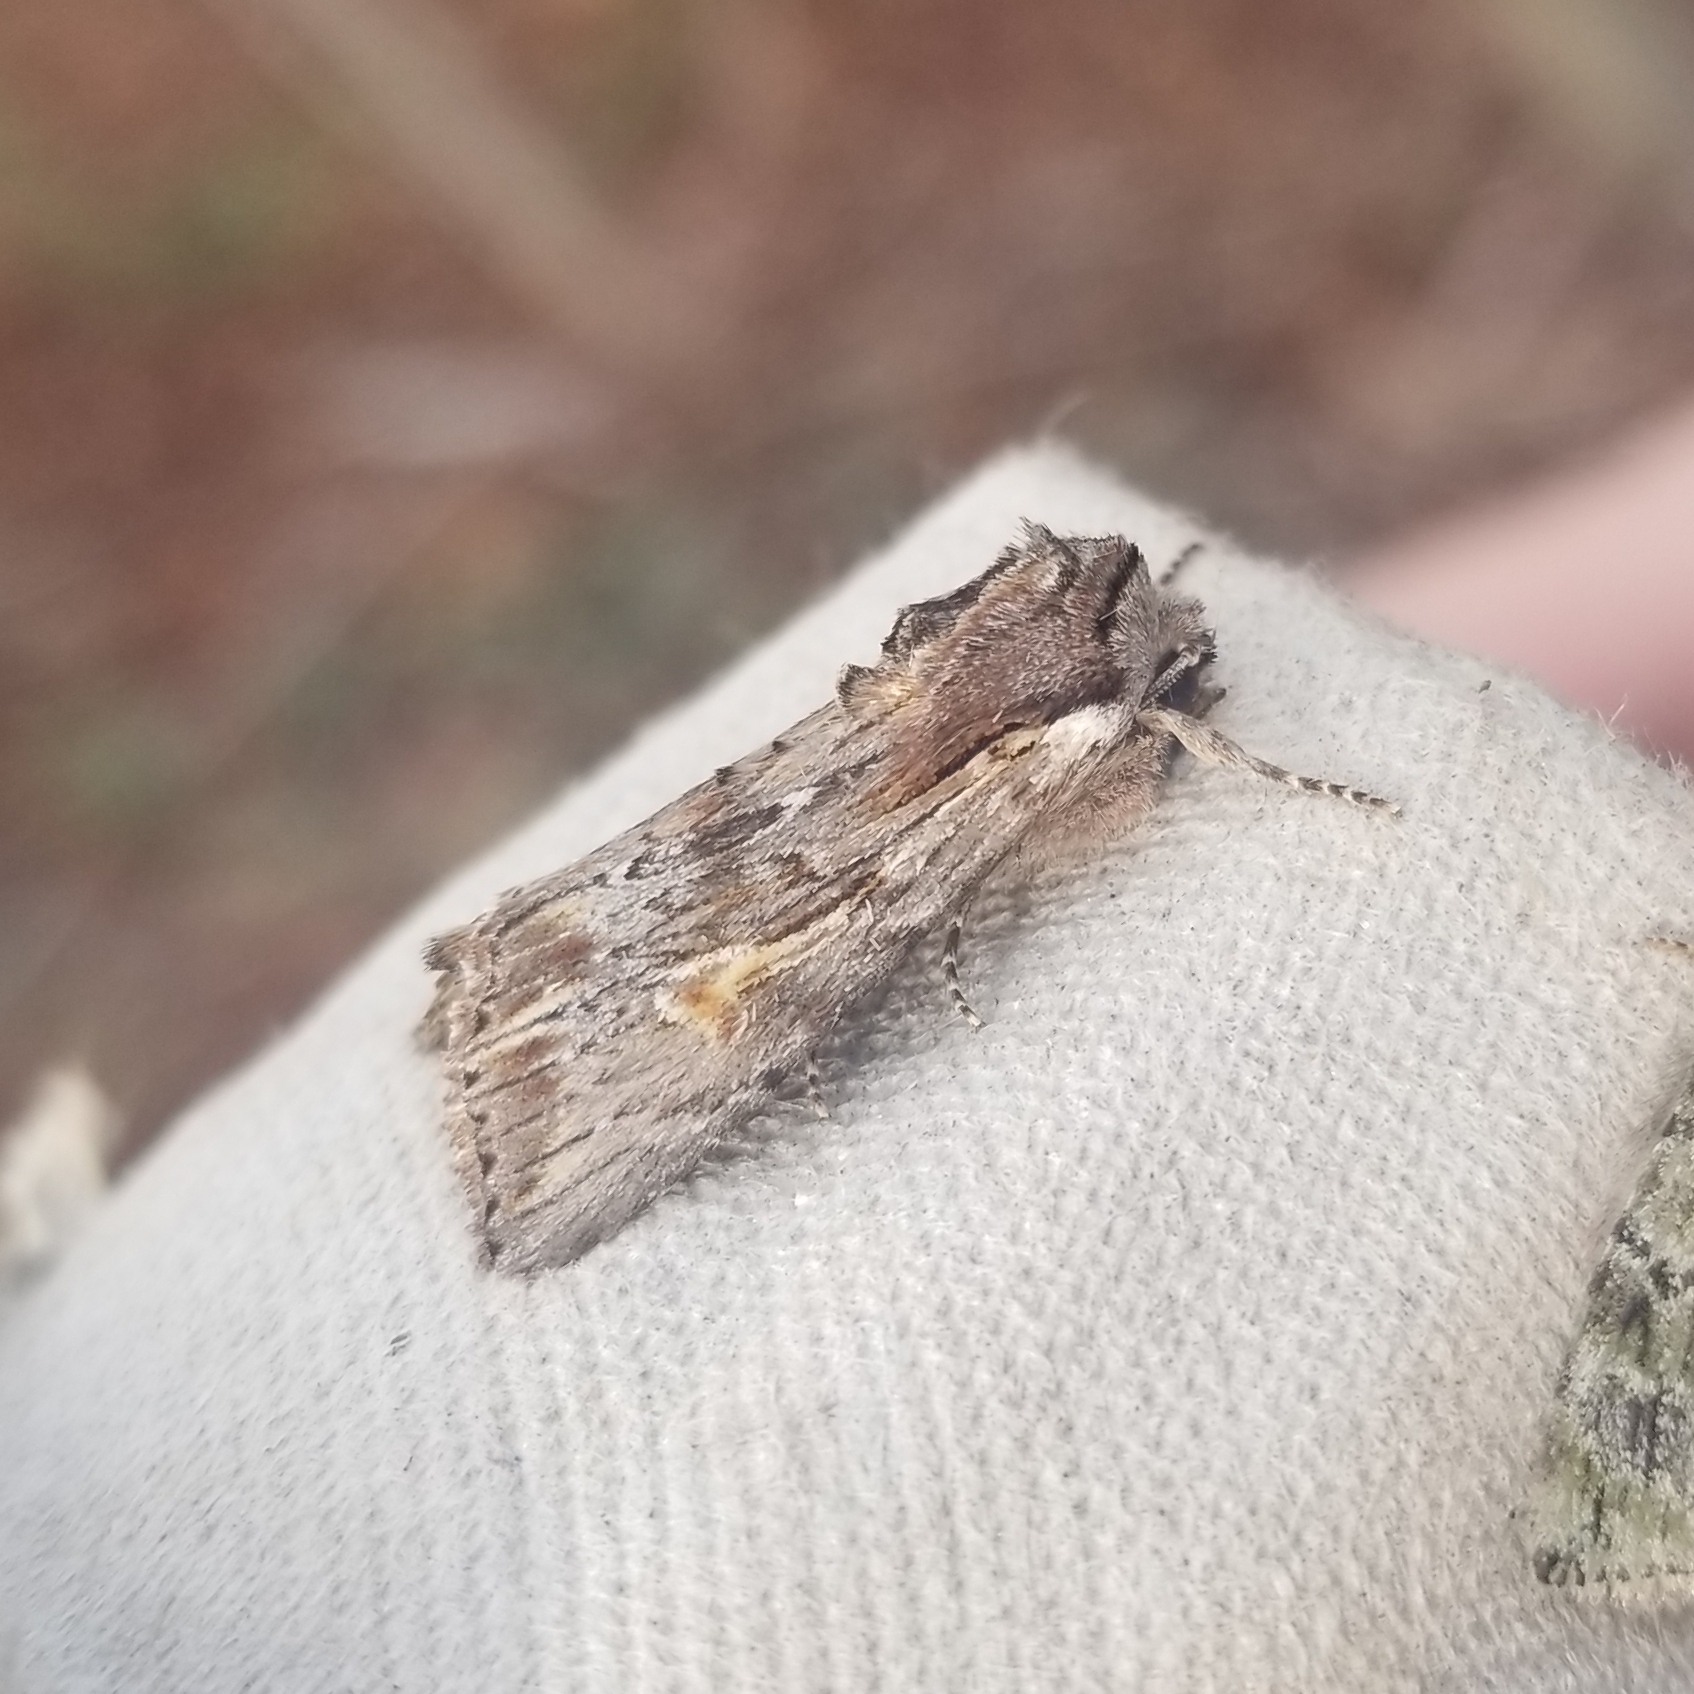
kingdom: Animalia
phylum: Arthropoda
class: Insecta
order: Lepidoptera
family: Noctuidae
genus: Achatia
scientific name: Achatia evicta
